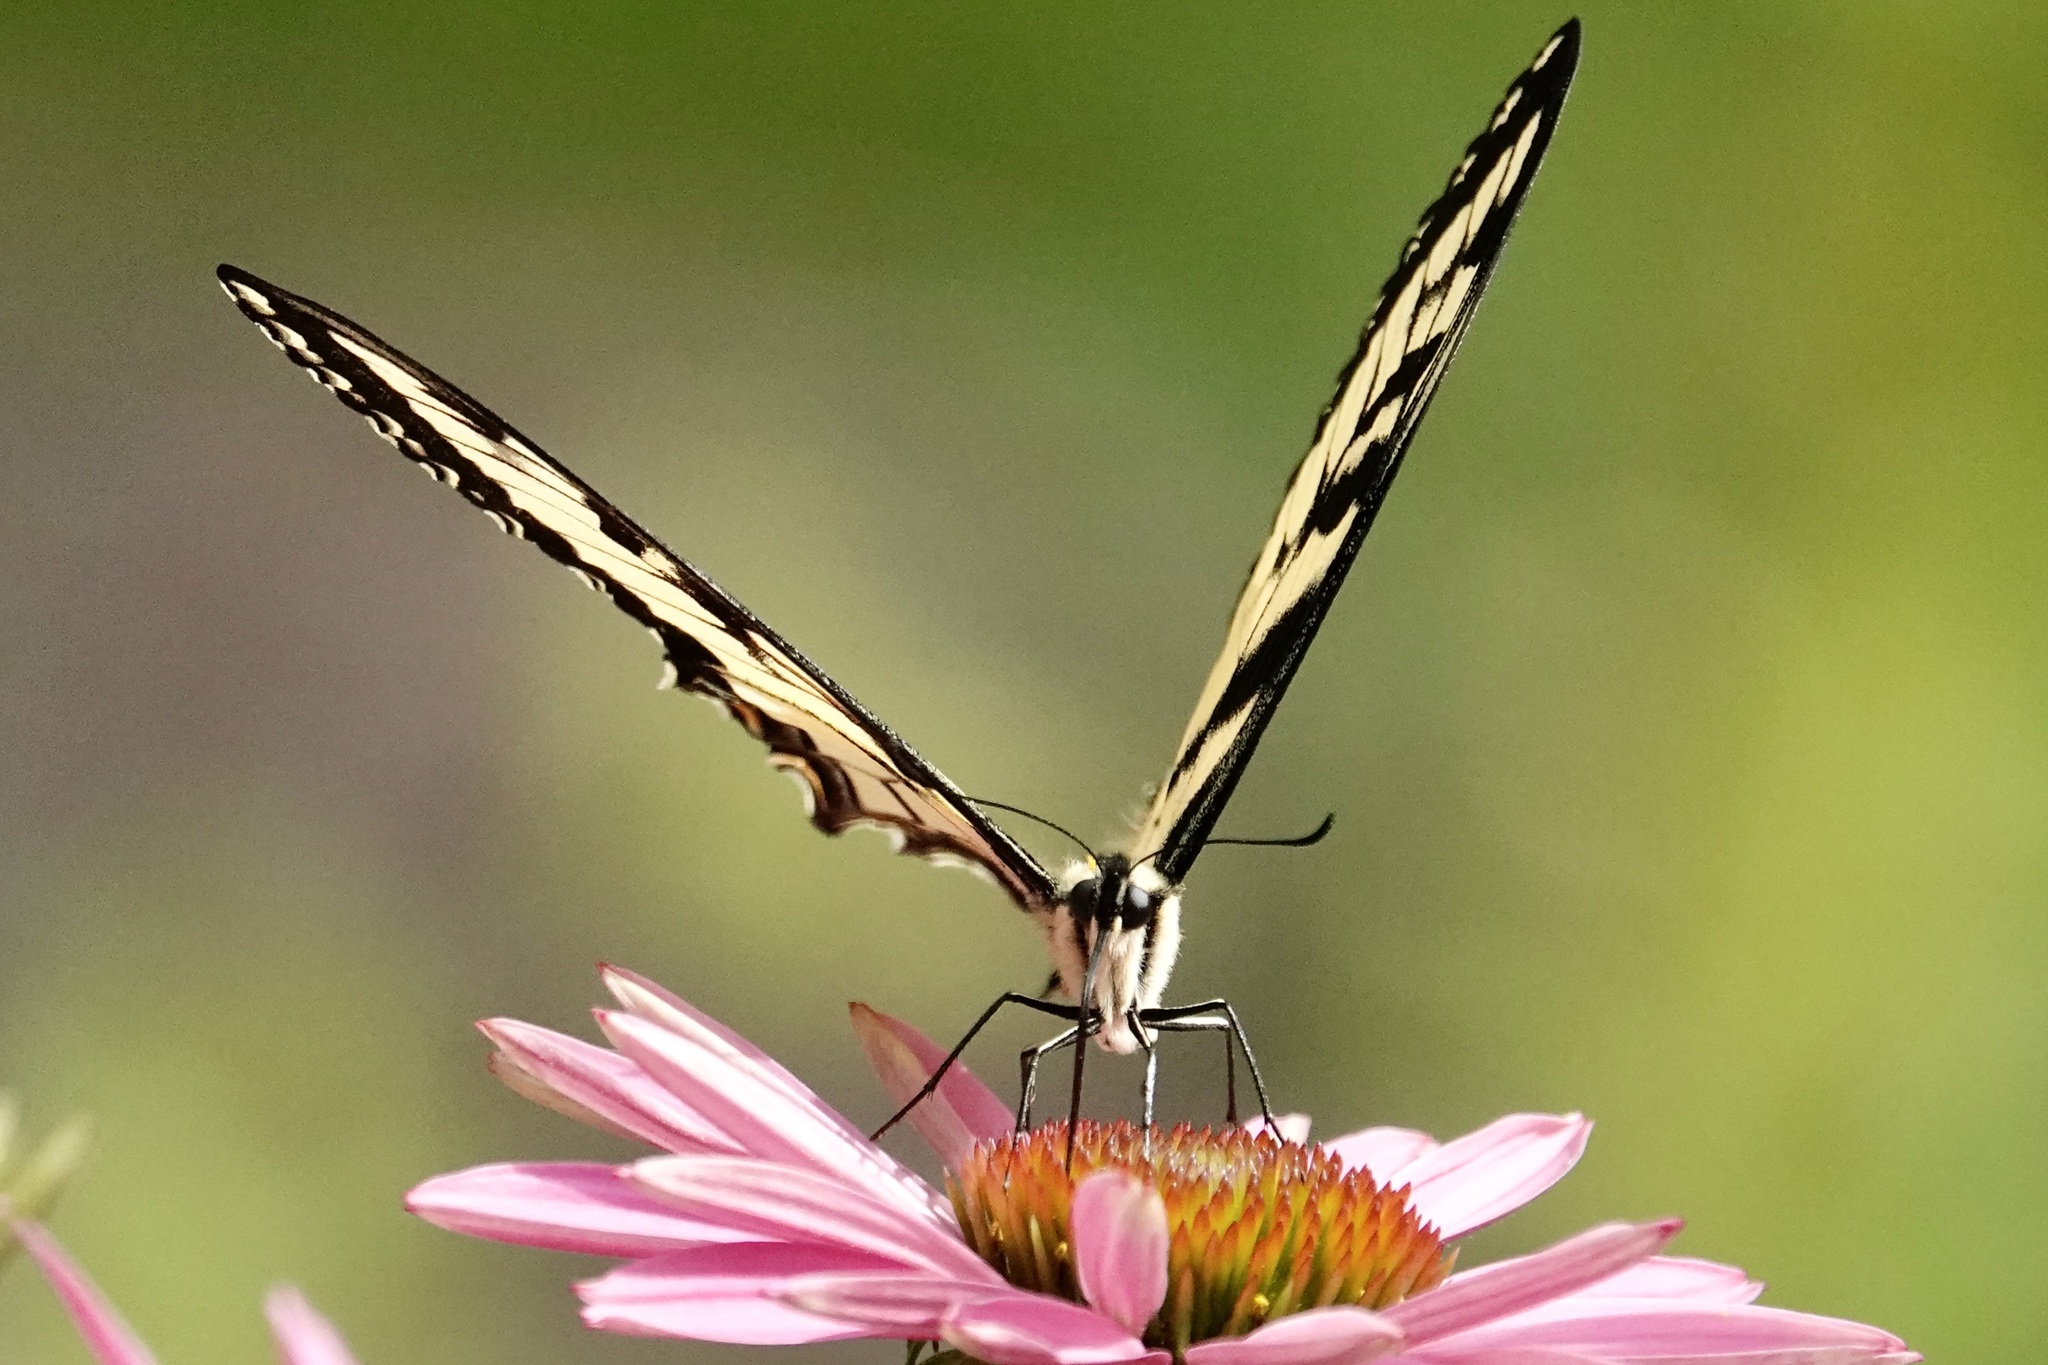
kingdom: Animalia
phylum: Arthropoda
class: Insecta
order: Lepidoptera
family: Papilionidae
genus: Papilio
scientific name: Papilio glaucus
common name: Tiger swallowtail
